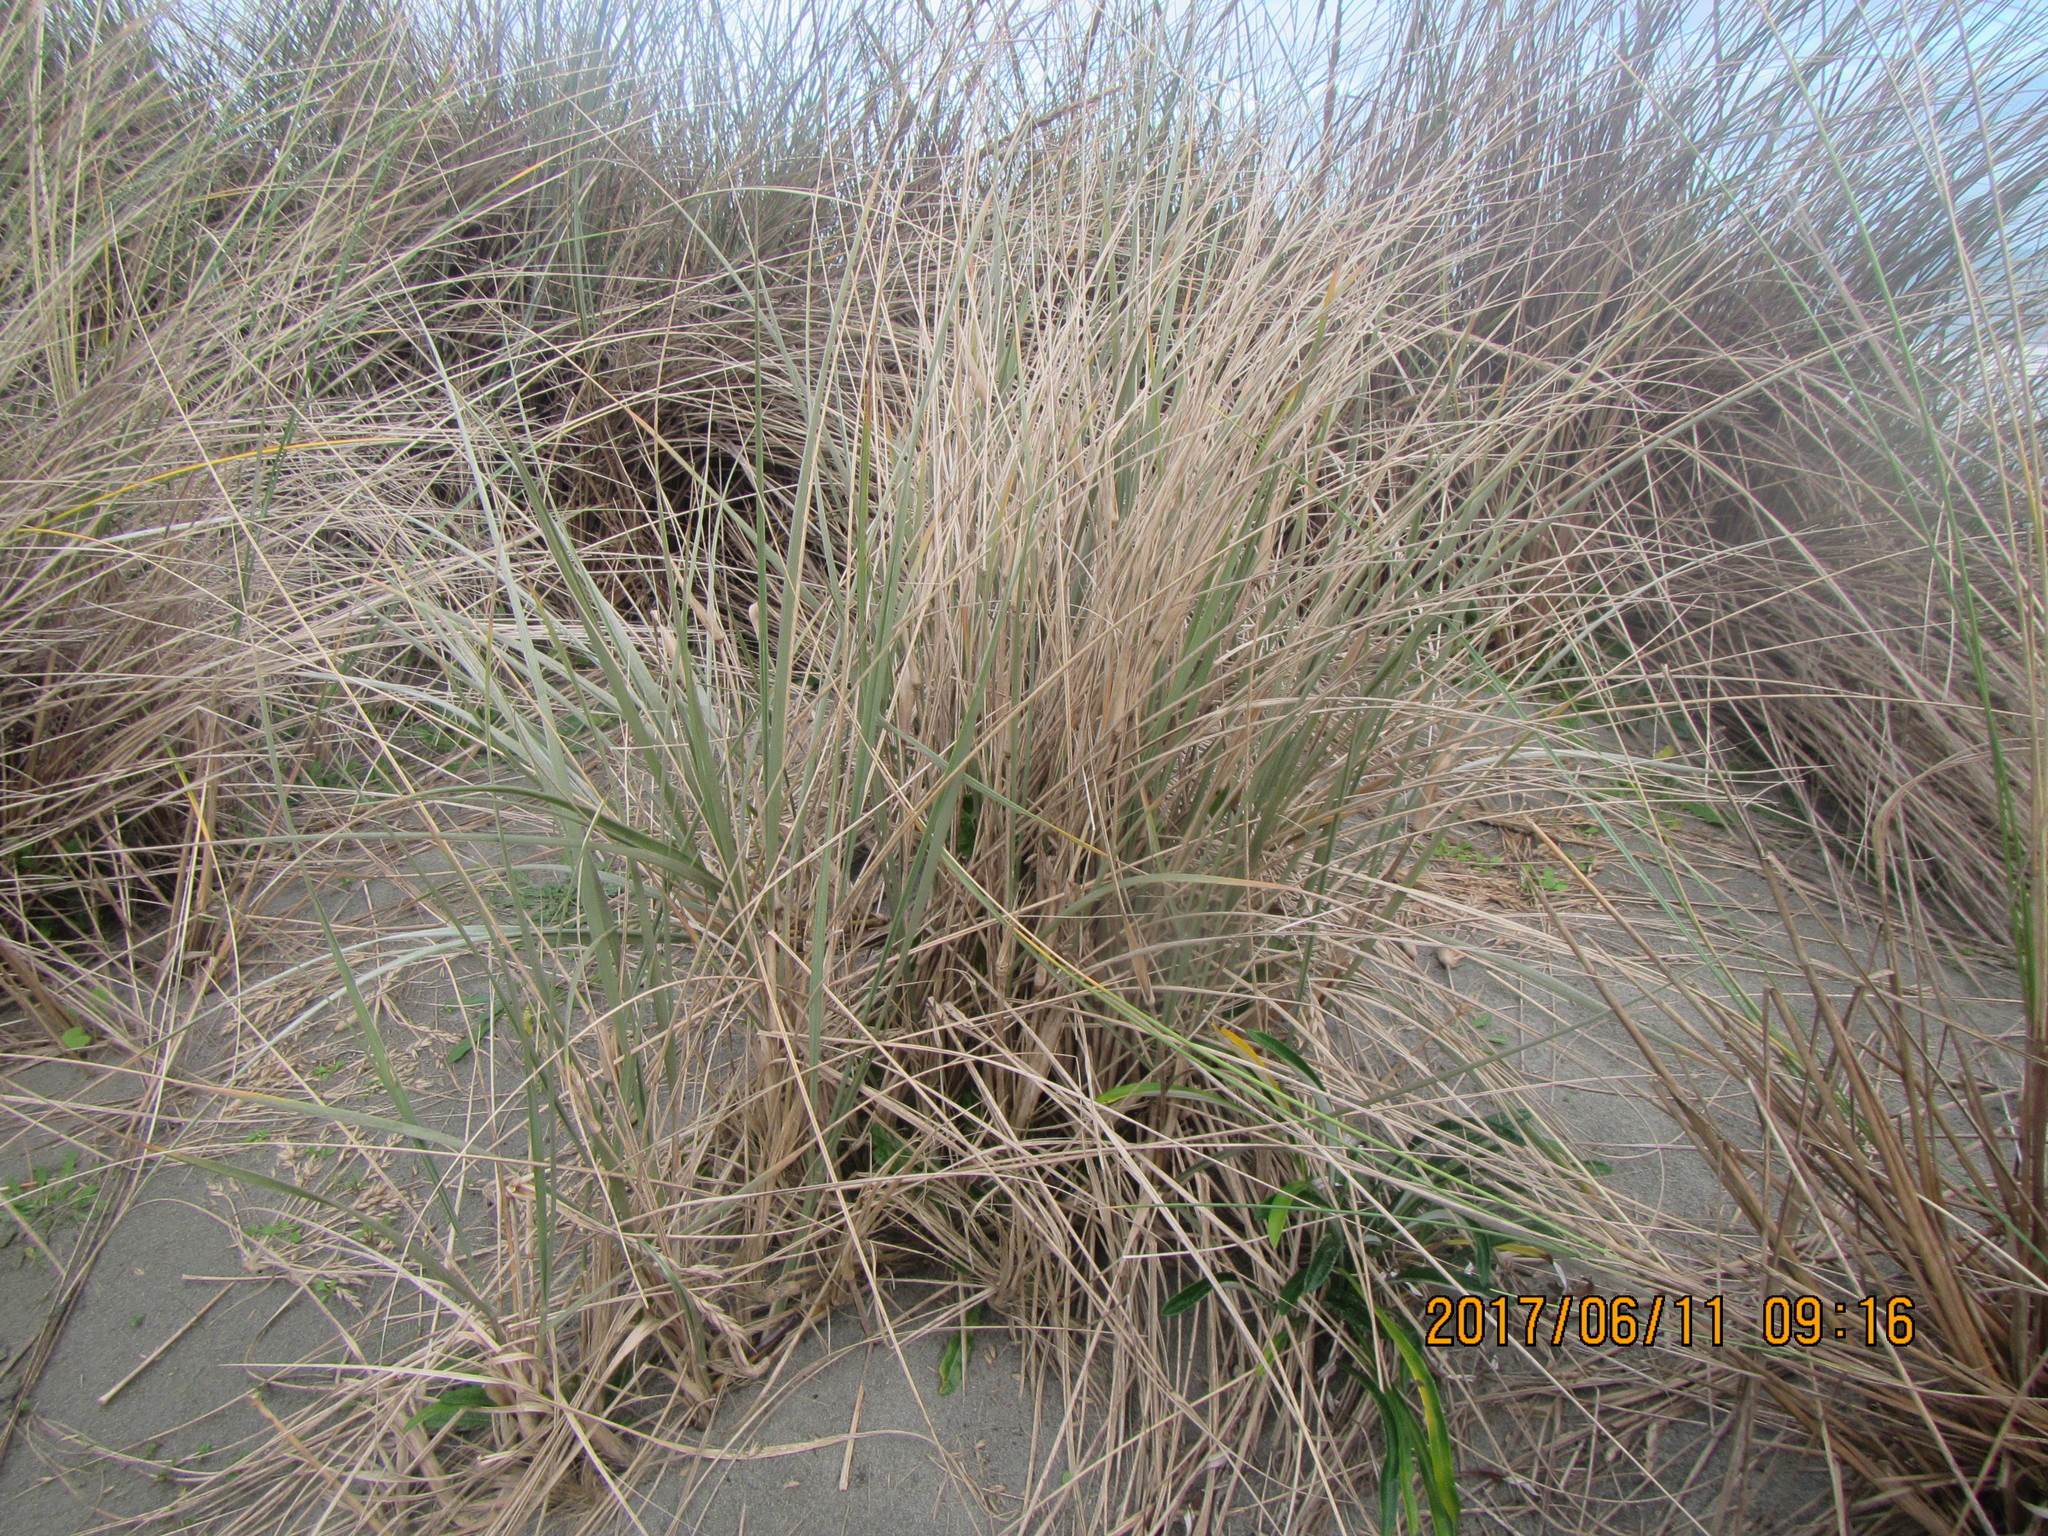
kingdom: Plantae
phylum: Tracheophyta
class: Liliopsida
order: Poales
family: Poaceae
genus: Spinifex
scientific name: Spinifex sericeus
